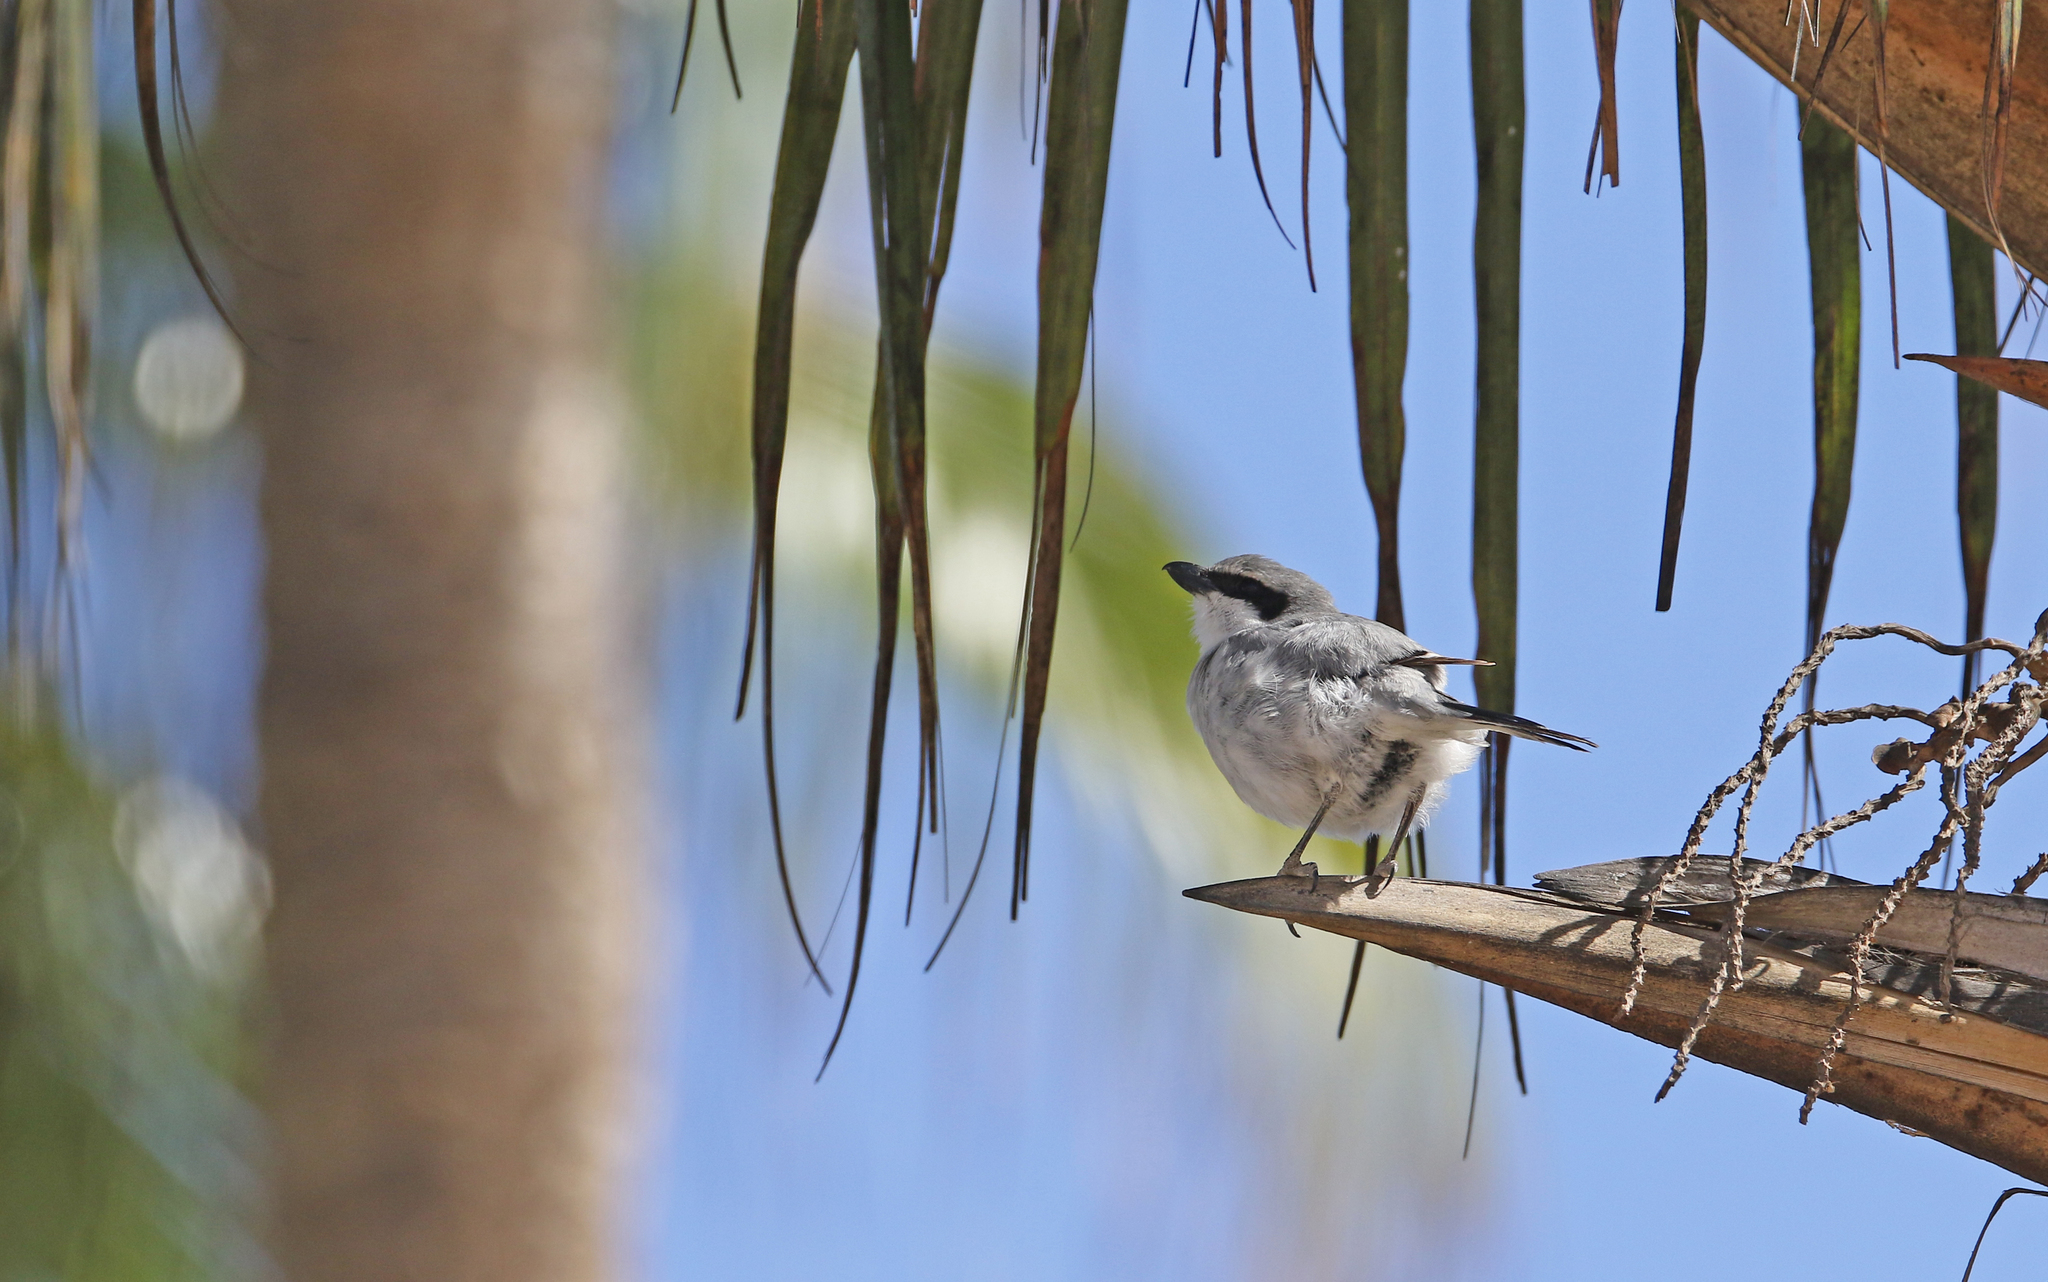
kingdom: Animalia
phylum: Chordata
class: Aves
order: Passeriformes
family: Laniidae
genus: Lanius
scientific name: Lanius excubitor
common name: Great grey shrike
